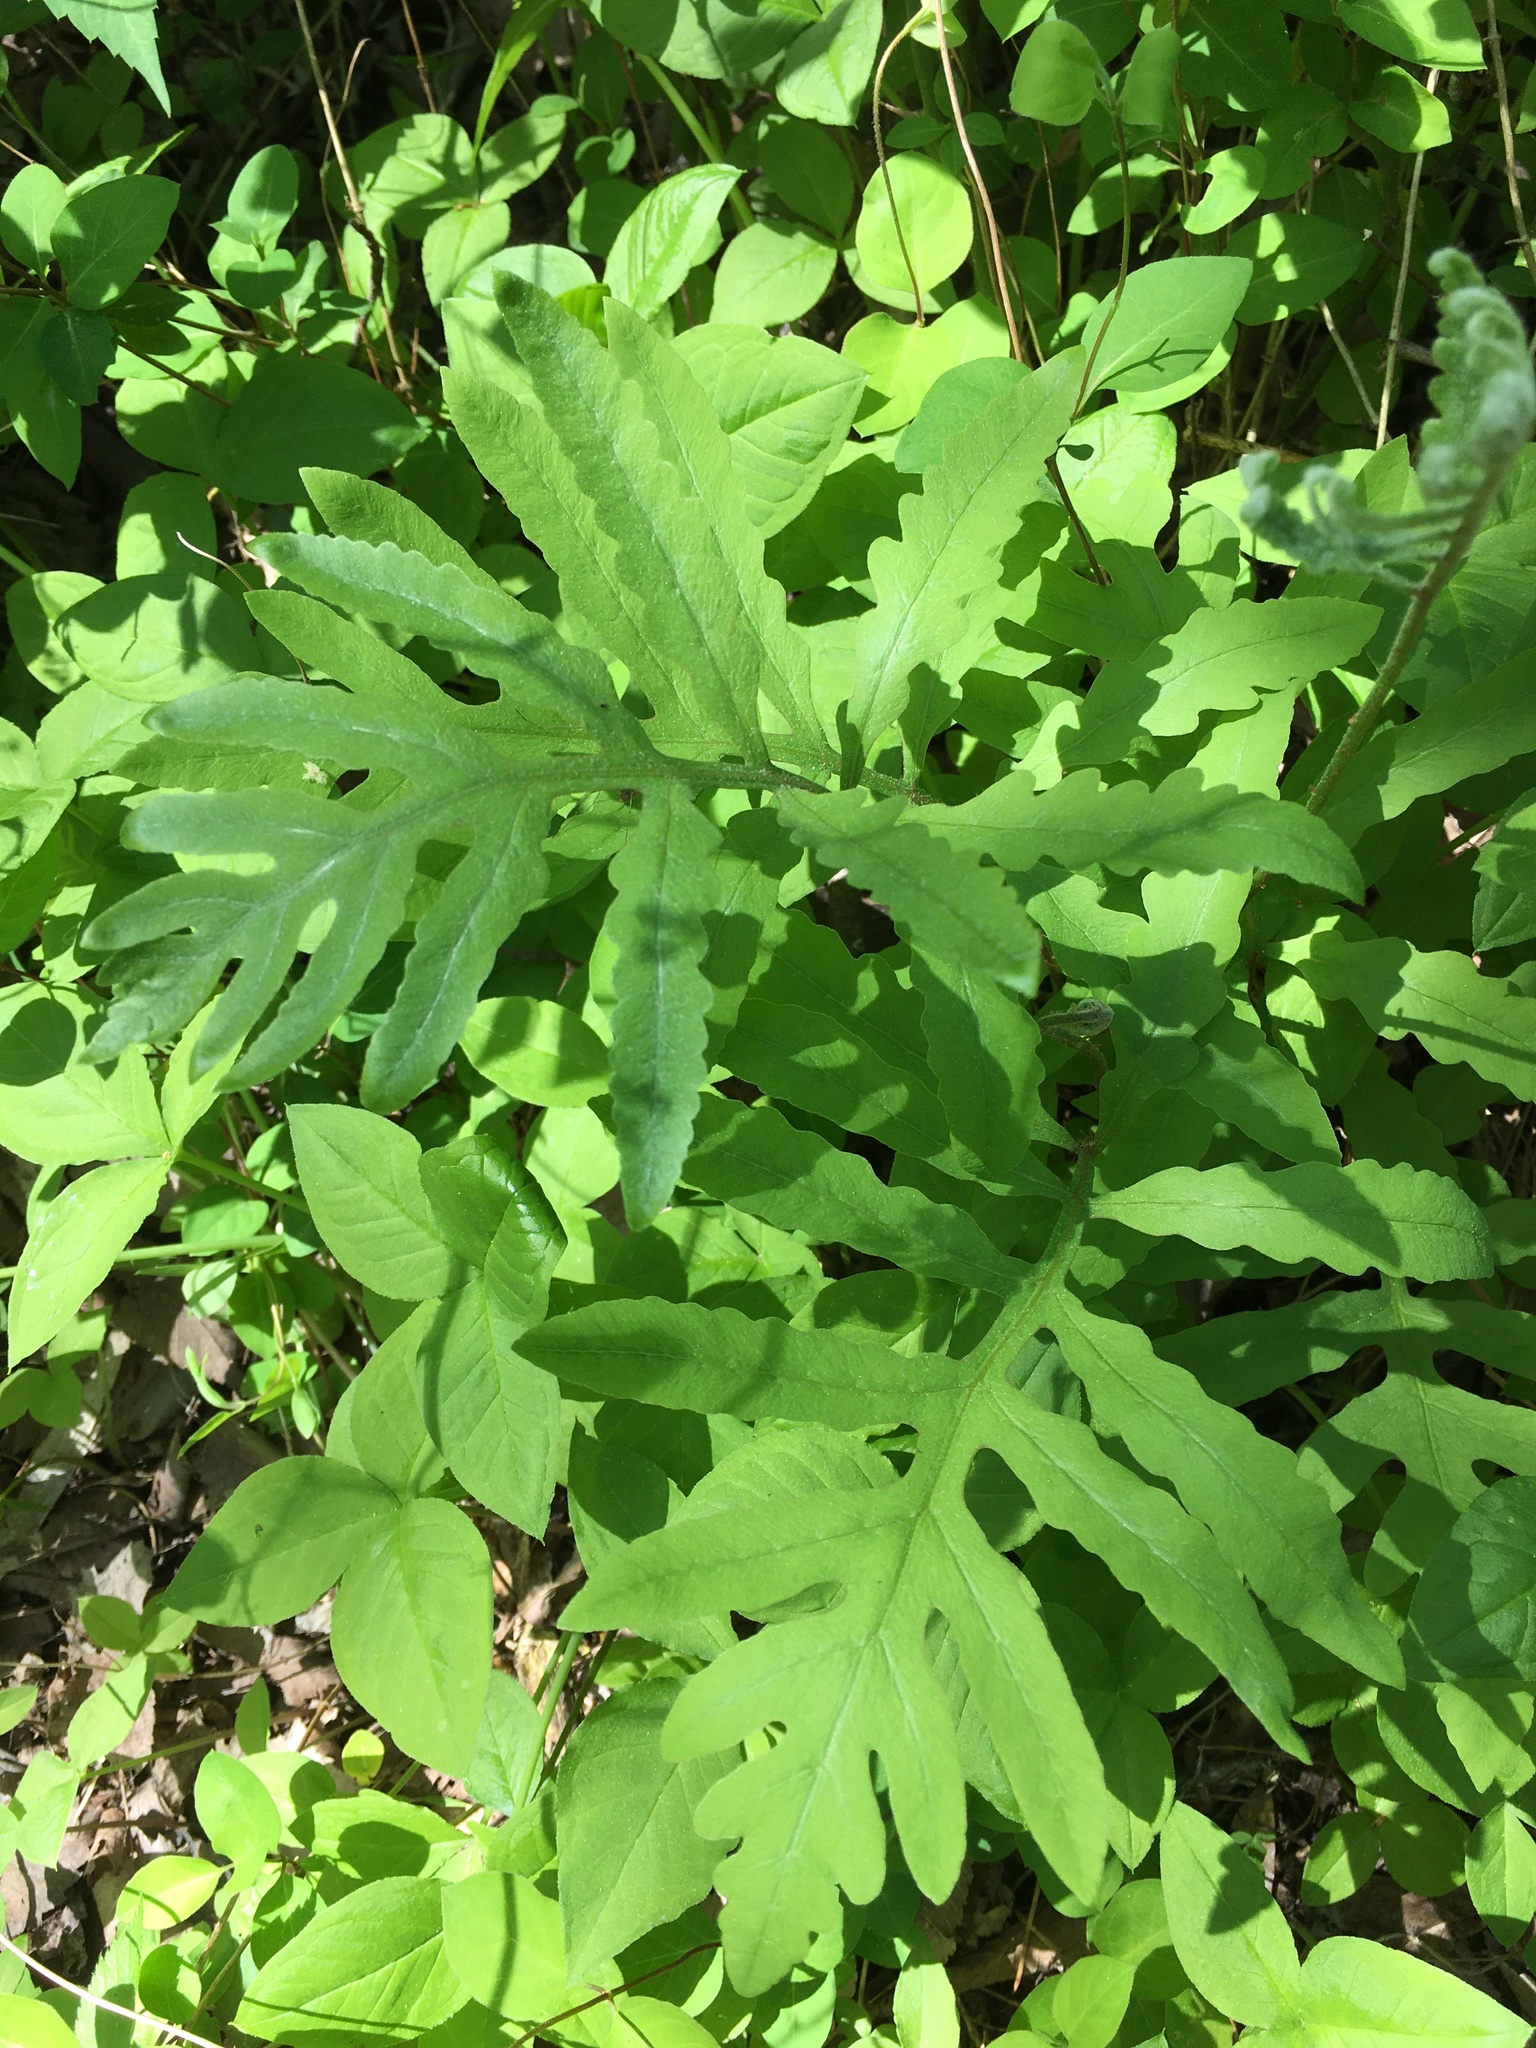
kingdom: Plantae
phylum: Tracheophyta
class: Polypodiopsida
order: Polypodiales
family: Onocleaceae
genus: Onoclea
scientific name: Onoclea sensibilis
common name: Sensitive fern
